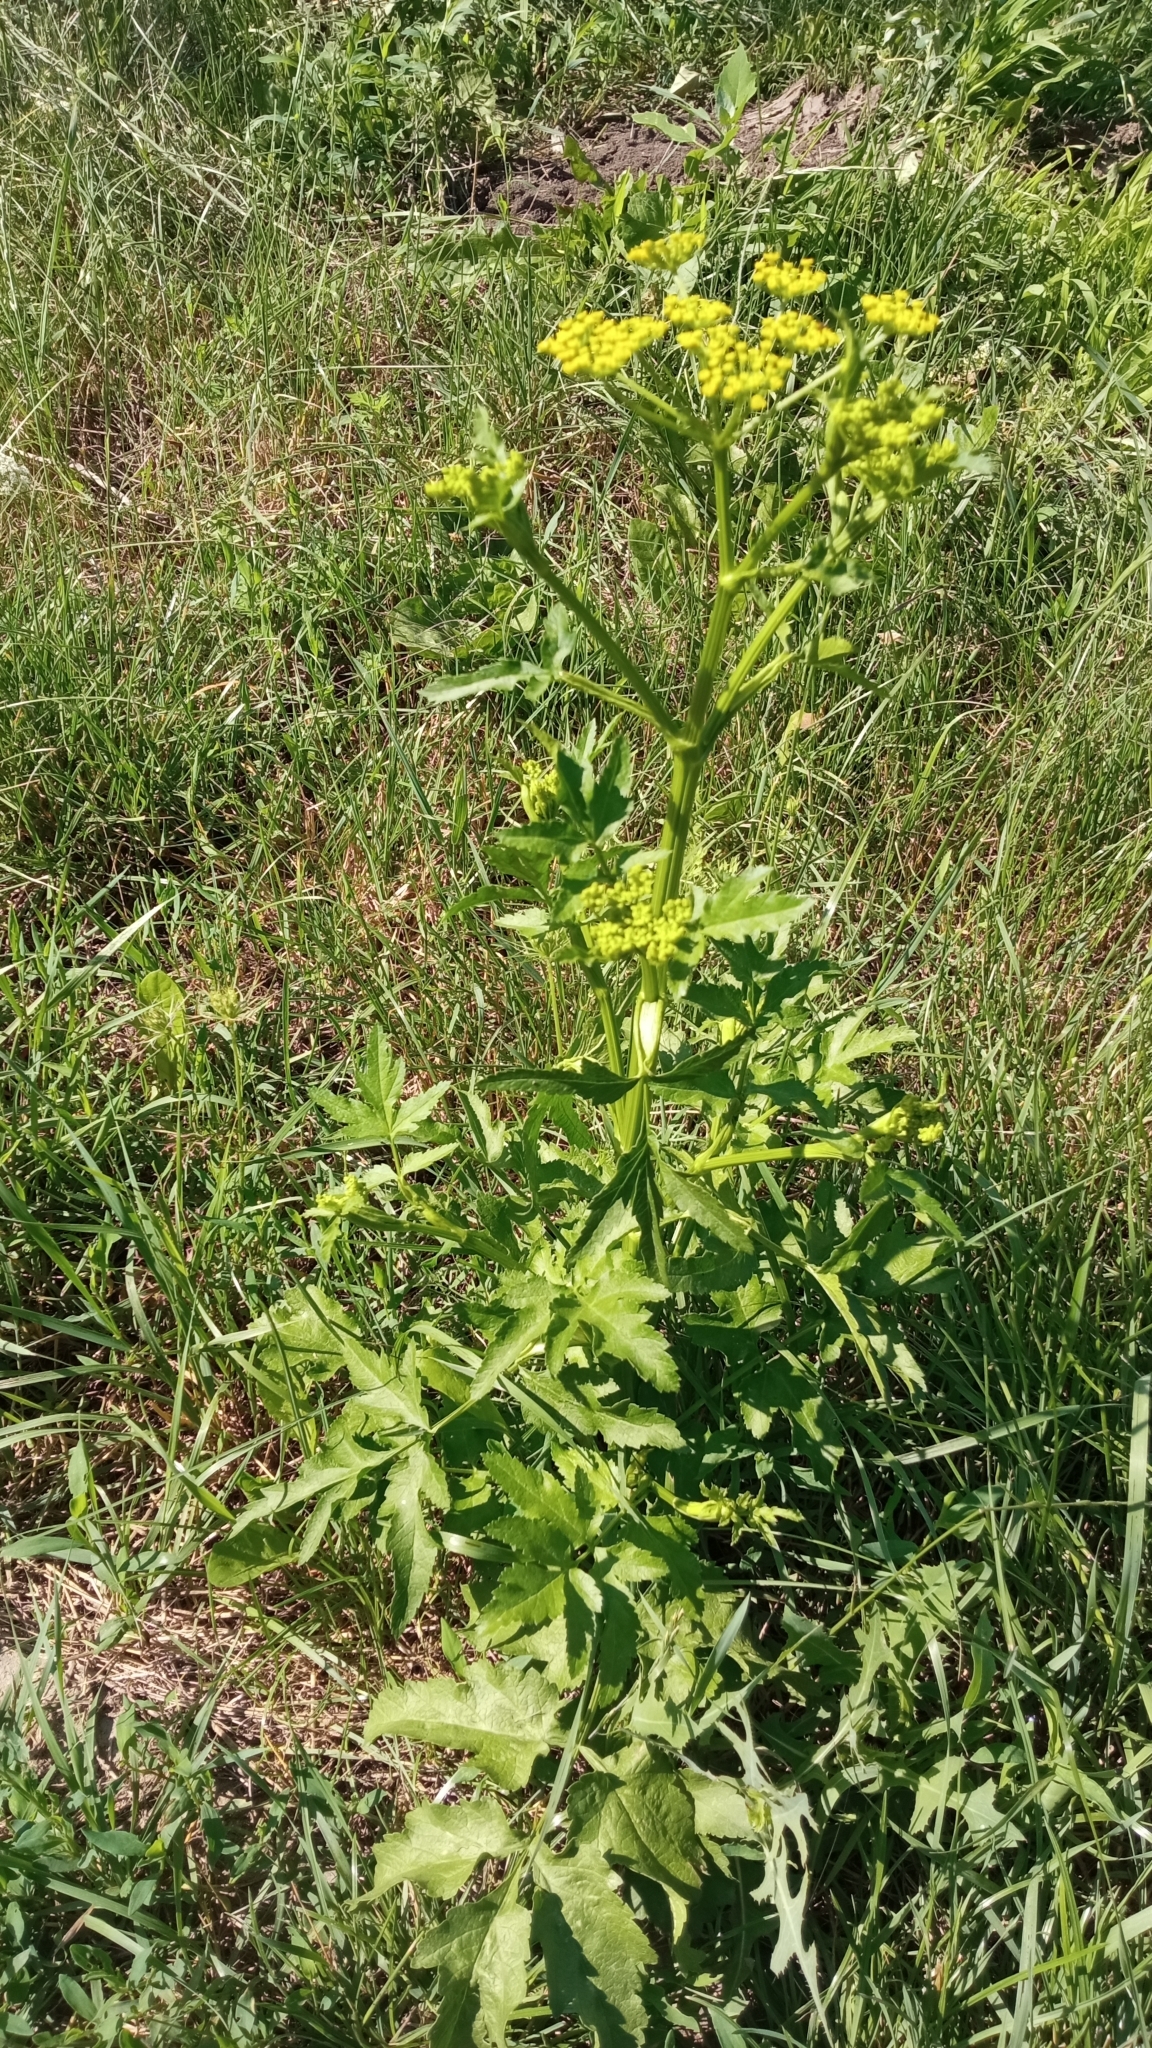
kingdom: Plantae
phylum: Tracheophyta
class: Magnoliopsida
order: Apiales
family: Apiaceae
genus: Pastinaca
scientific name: Pastinaca sativa
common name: Wild parsnip
